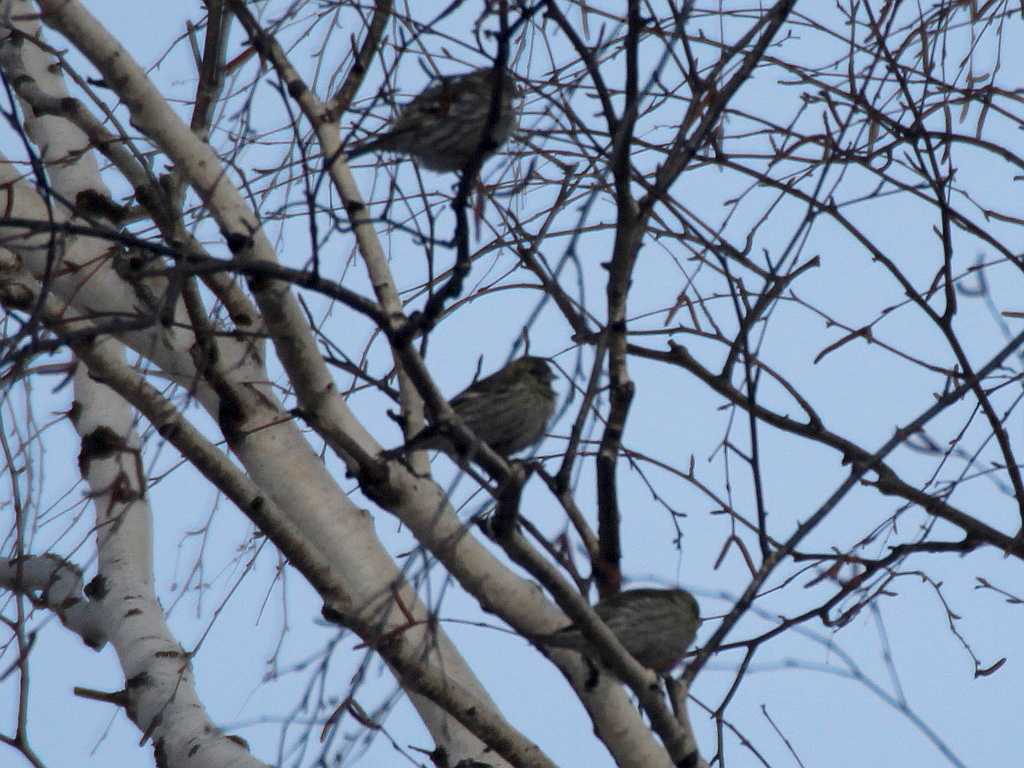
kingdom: Animalia
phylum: Chordata
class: Aves
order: Passeriformes
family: Fringillidae
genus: Spinus
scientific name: Spinus spinus
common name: Eurasian siskin
